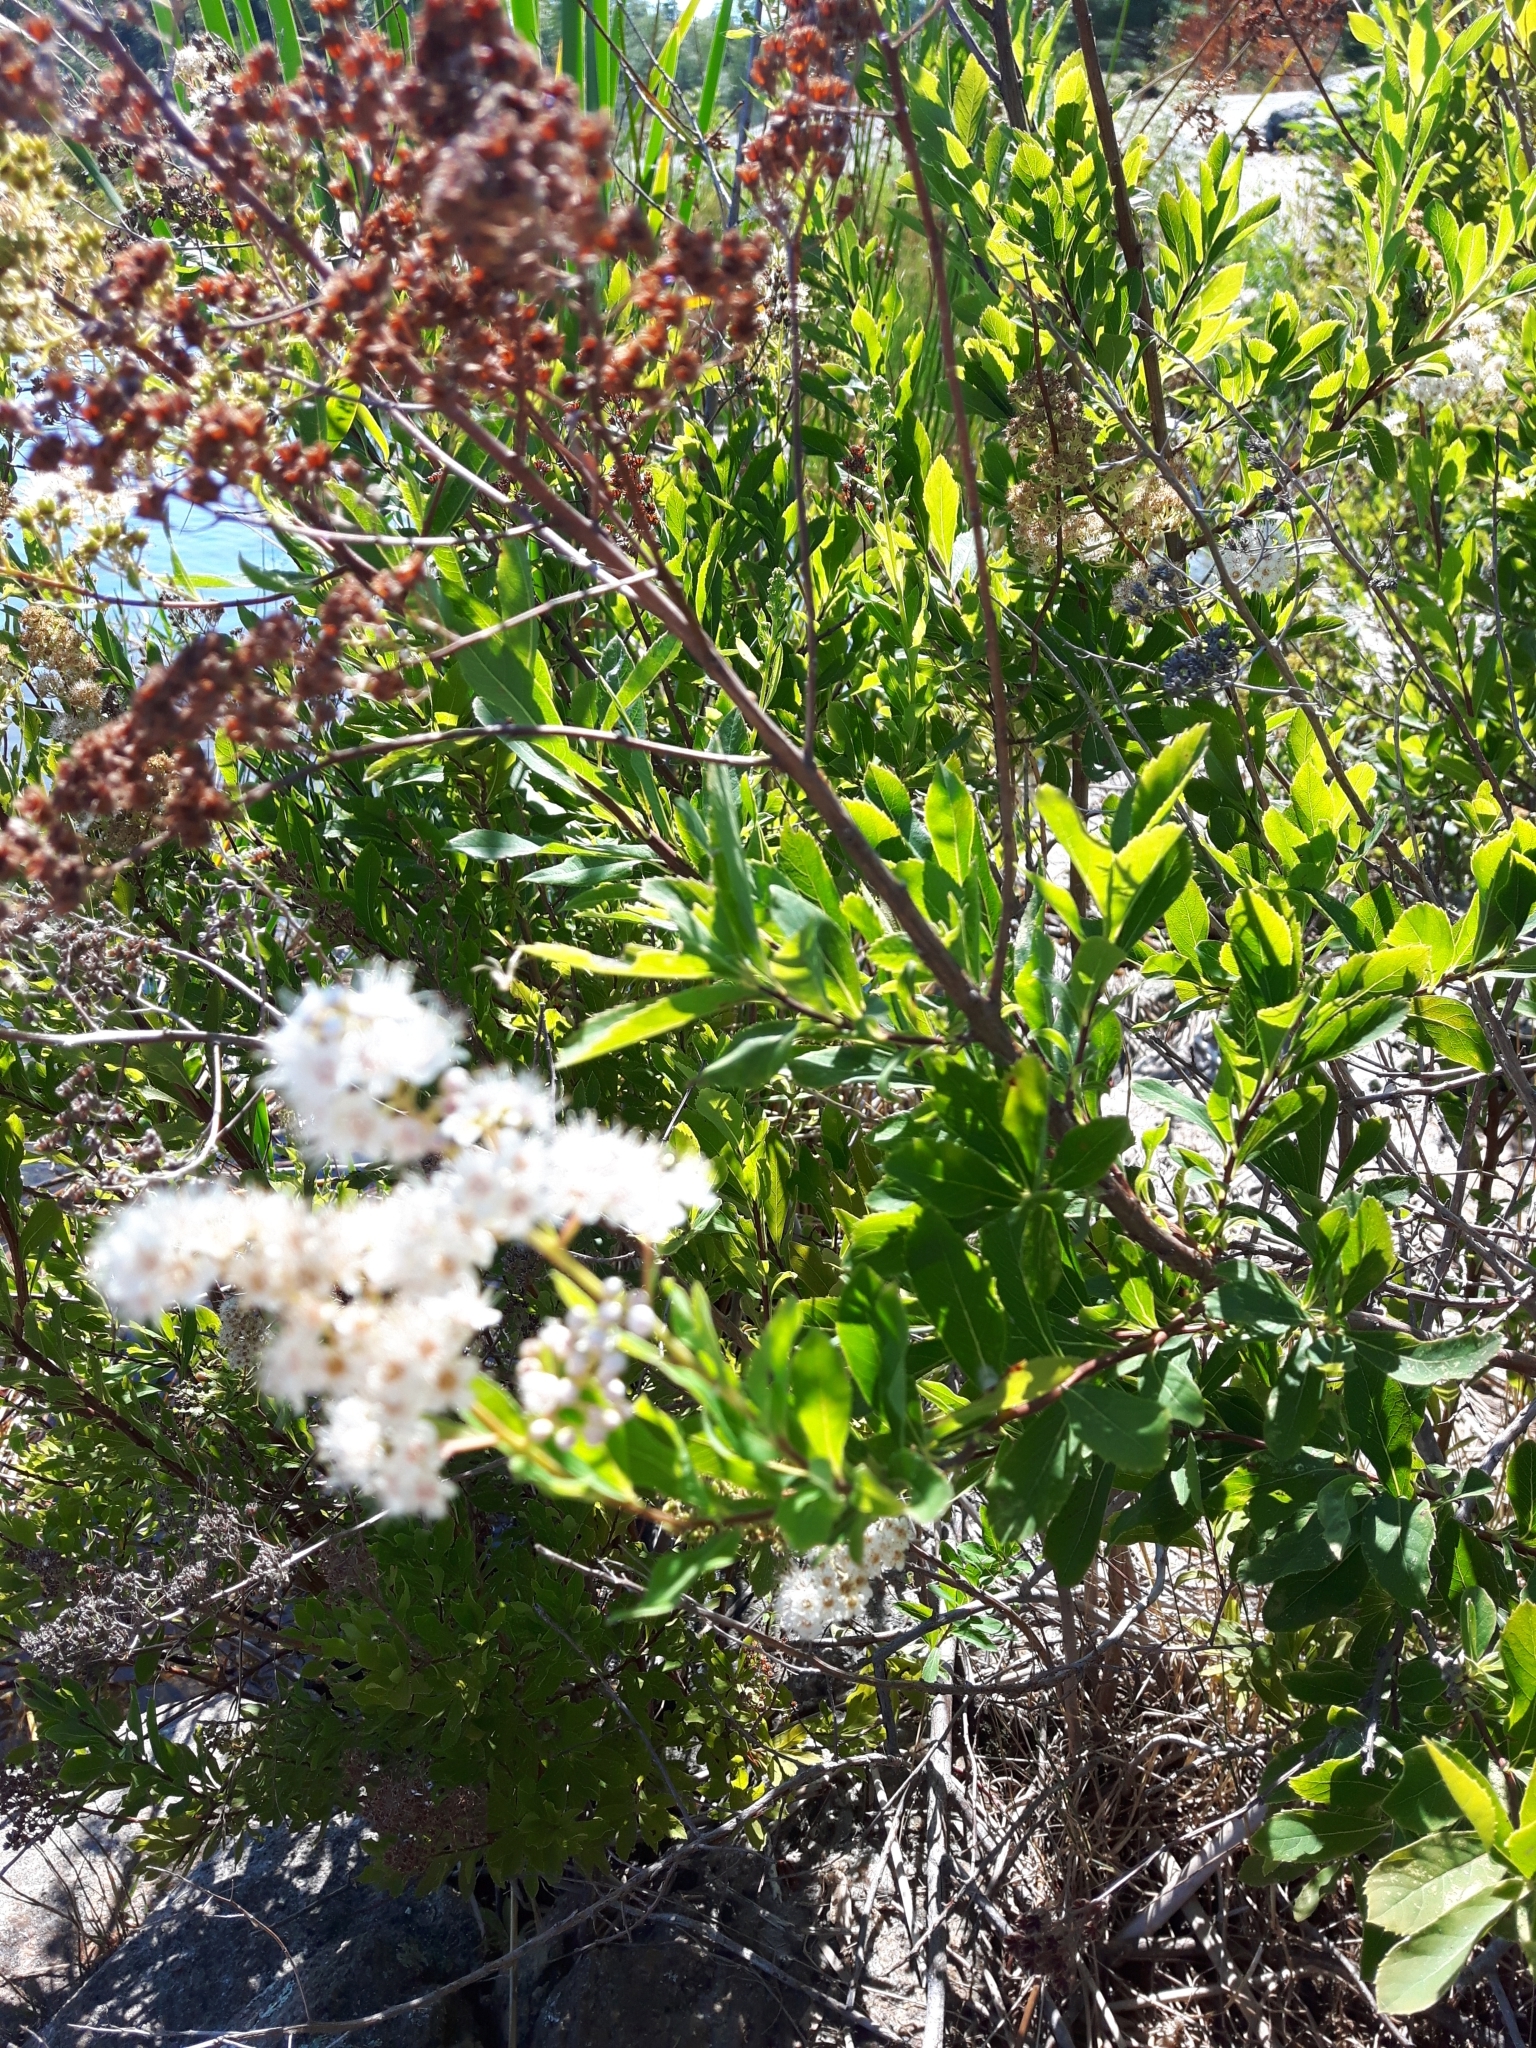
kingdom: Plantae
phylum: Tracheophyta
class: Magnoliopsida
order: Rosales
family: Rosaceae
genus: Spiraea
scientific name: Spiraea alba
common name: Pale bridewort
